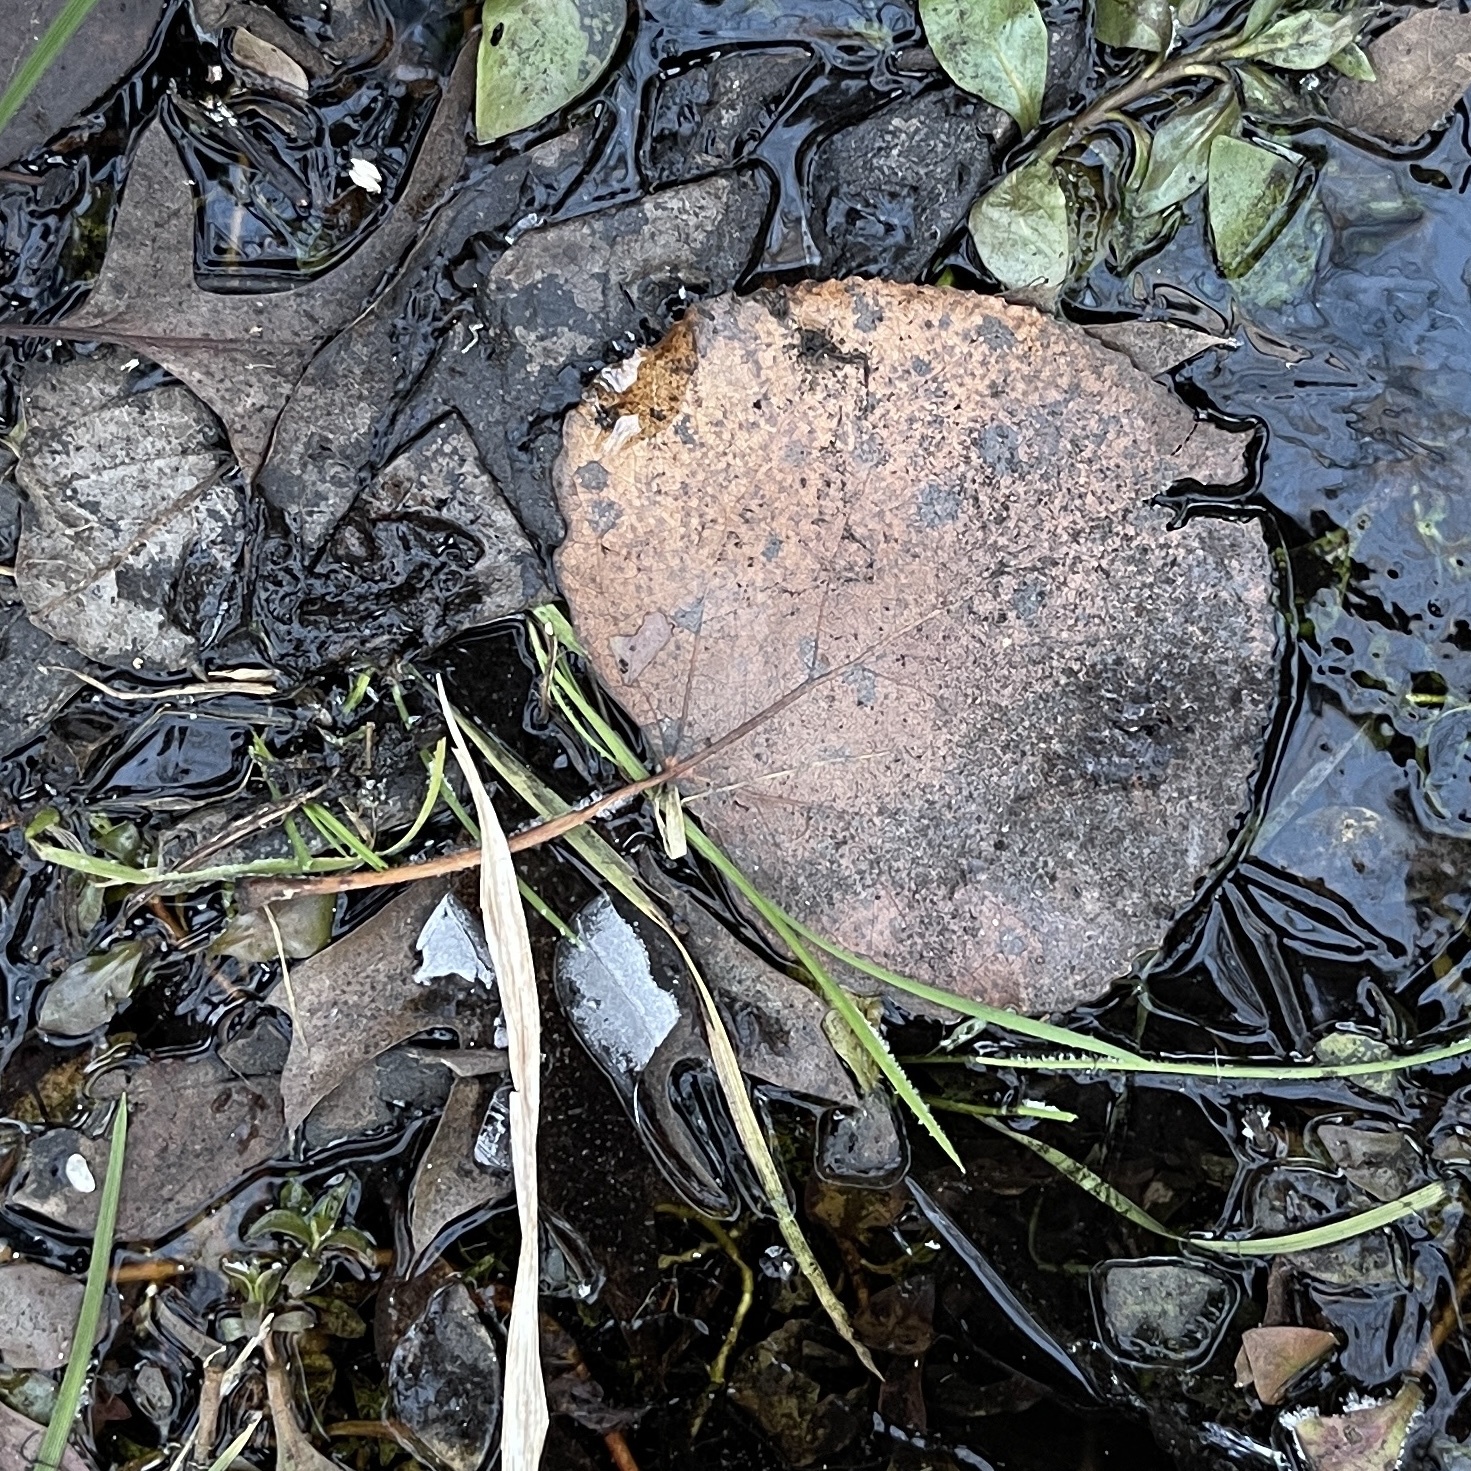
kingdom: Plantae
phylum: Tracheophyta
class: Magnoliopsida
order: Malpighiales
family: Salicaceae
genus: Populus
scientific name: Populus tremuloides
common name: Quaking aspen
